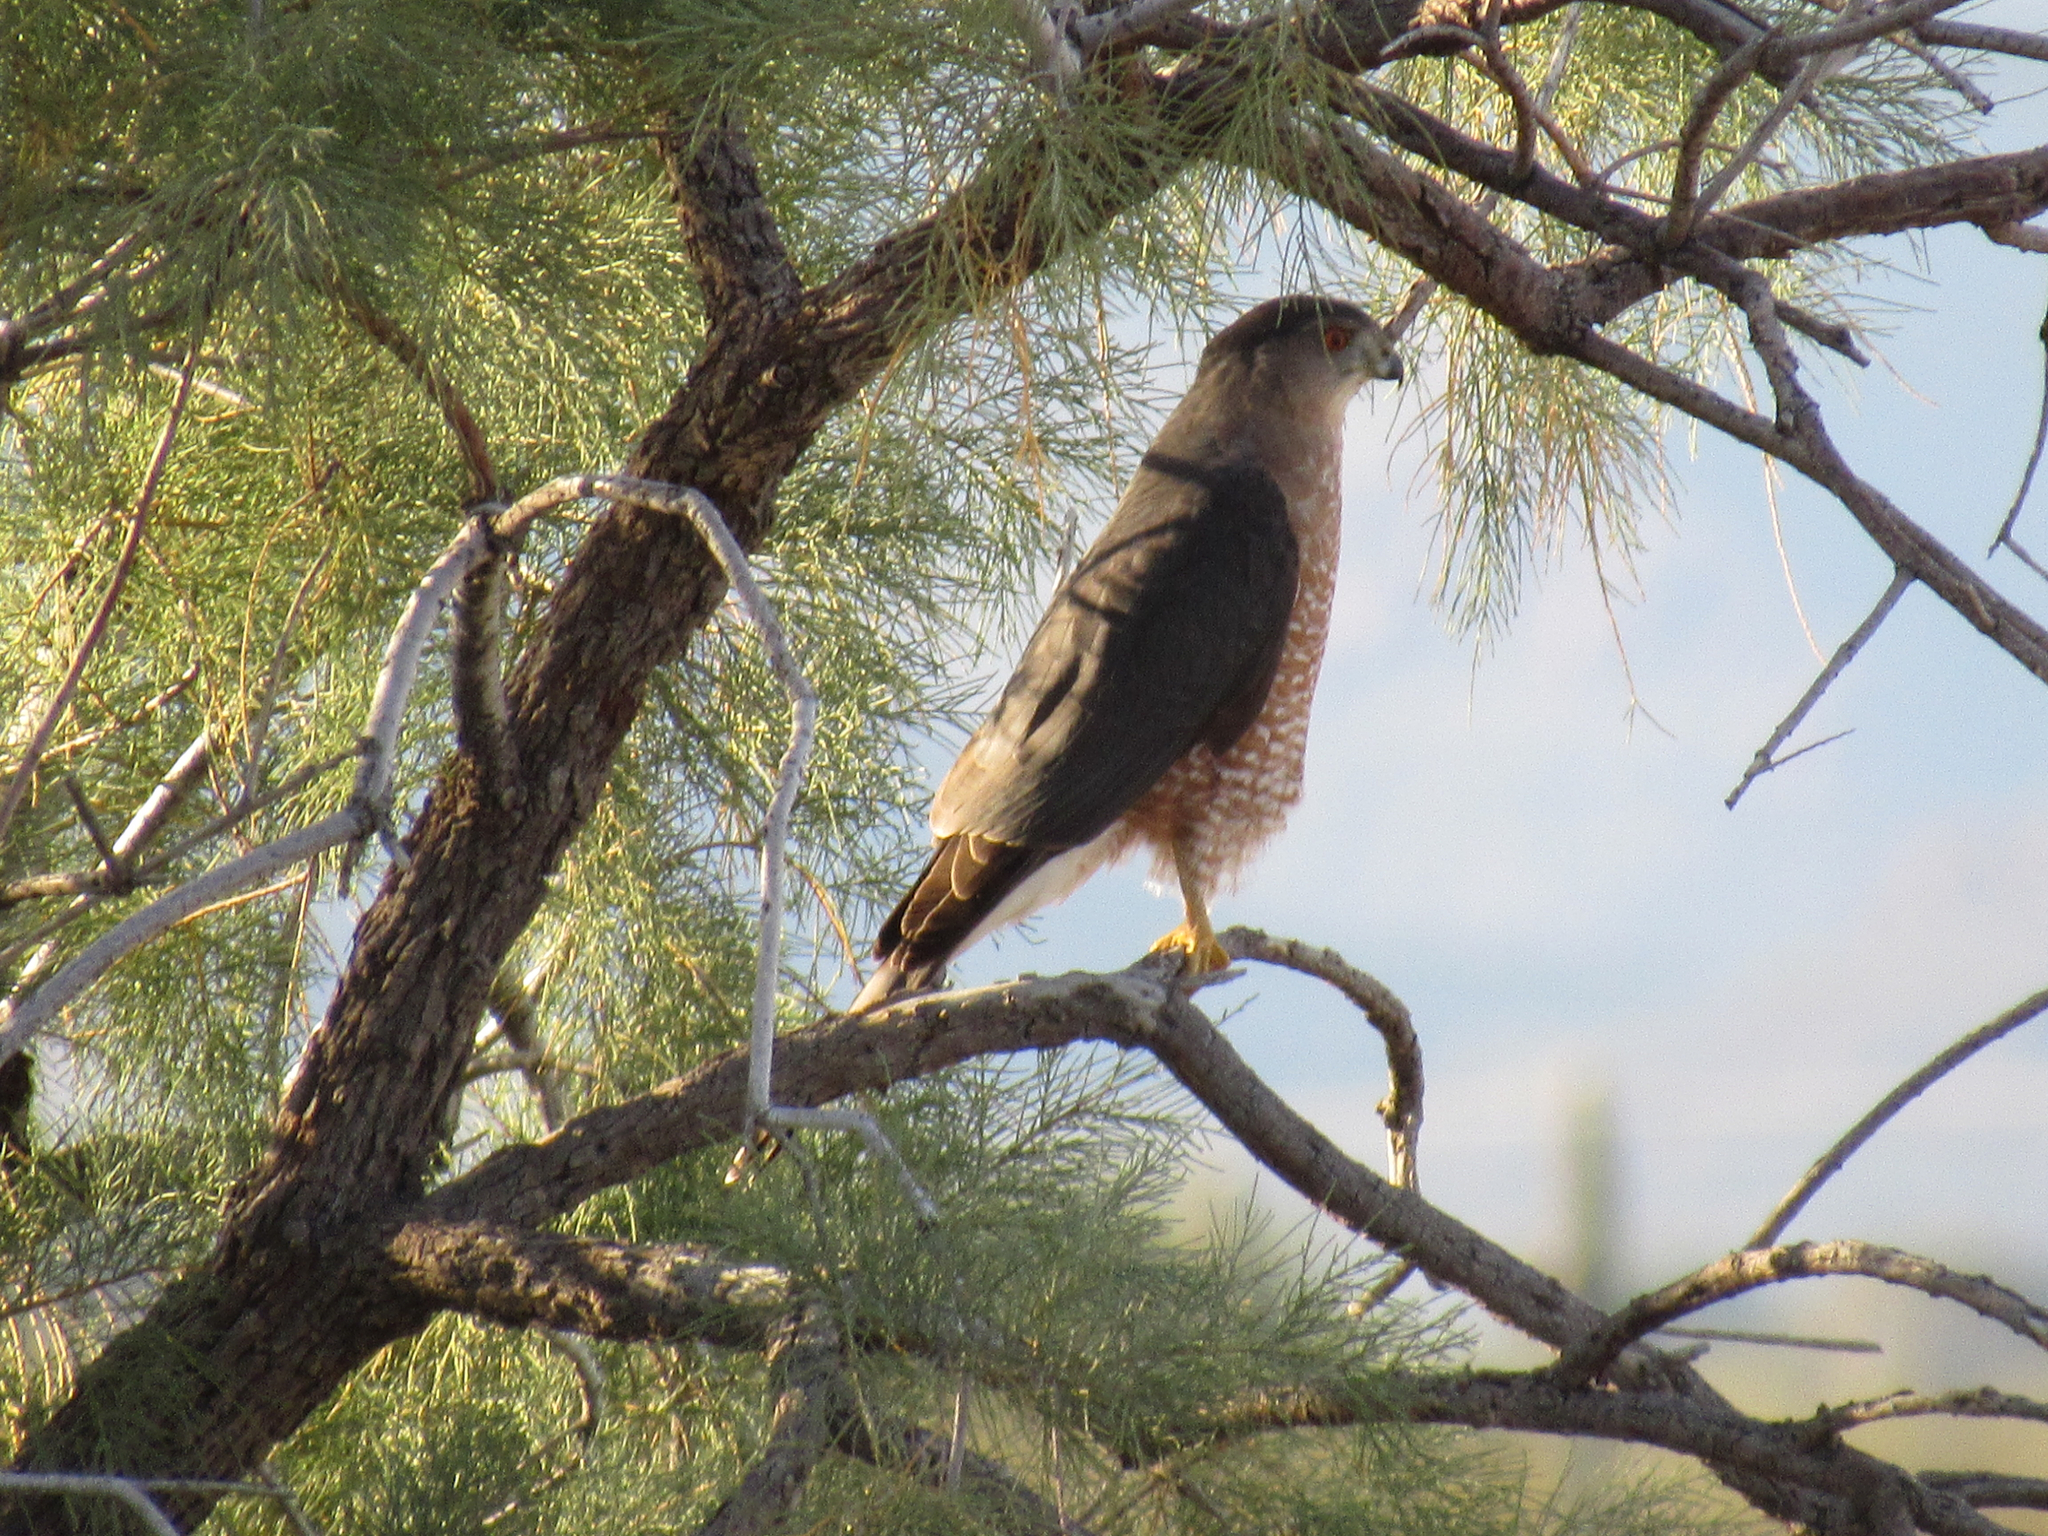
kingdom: Animalia
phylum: Chordata
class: Aves
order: Accipitriformes
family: Accipitridae
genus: Accipiter
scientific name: Accipiter cooperii
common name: Cooper's hawk
